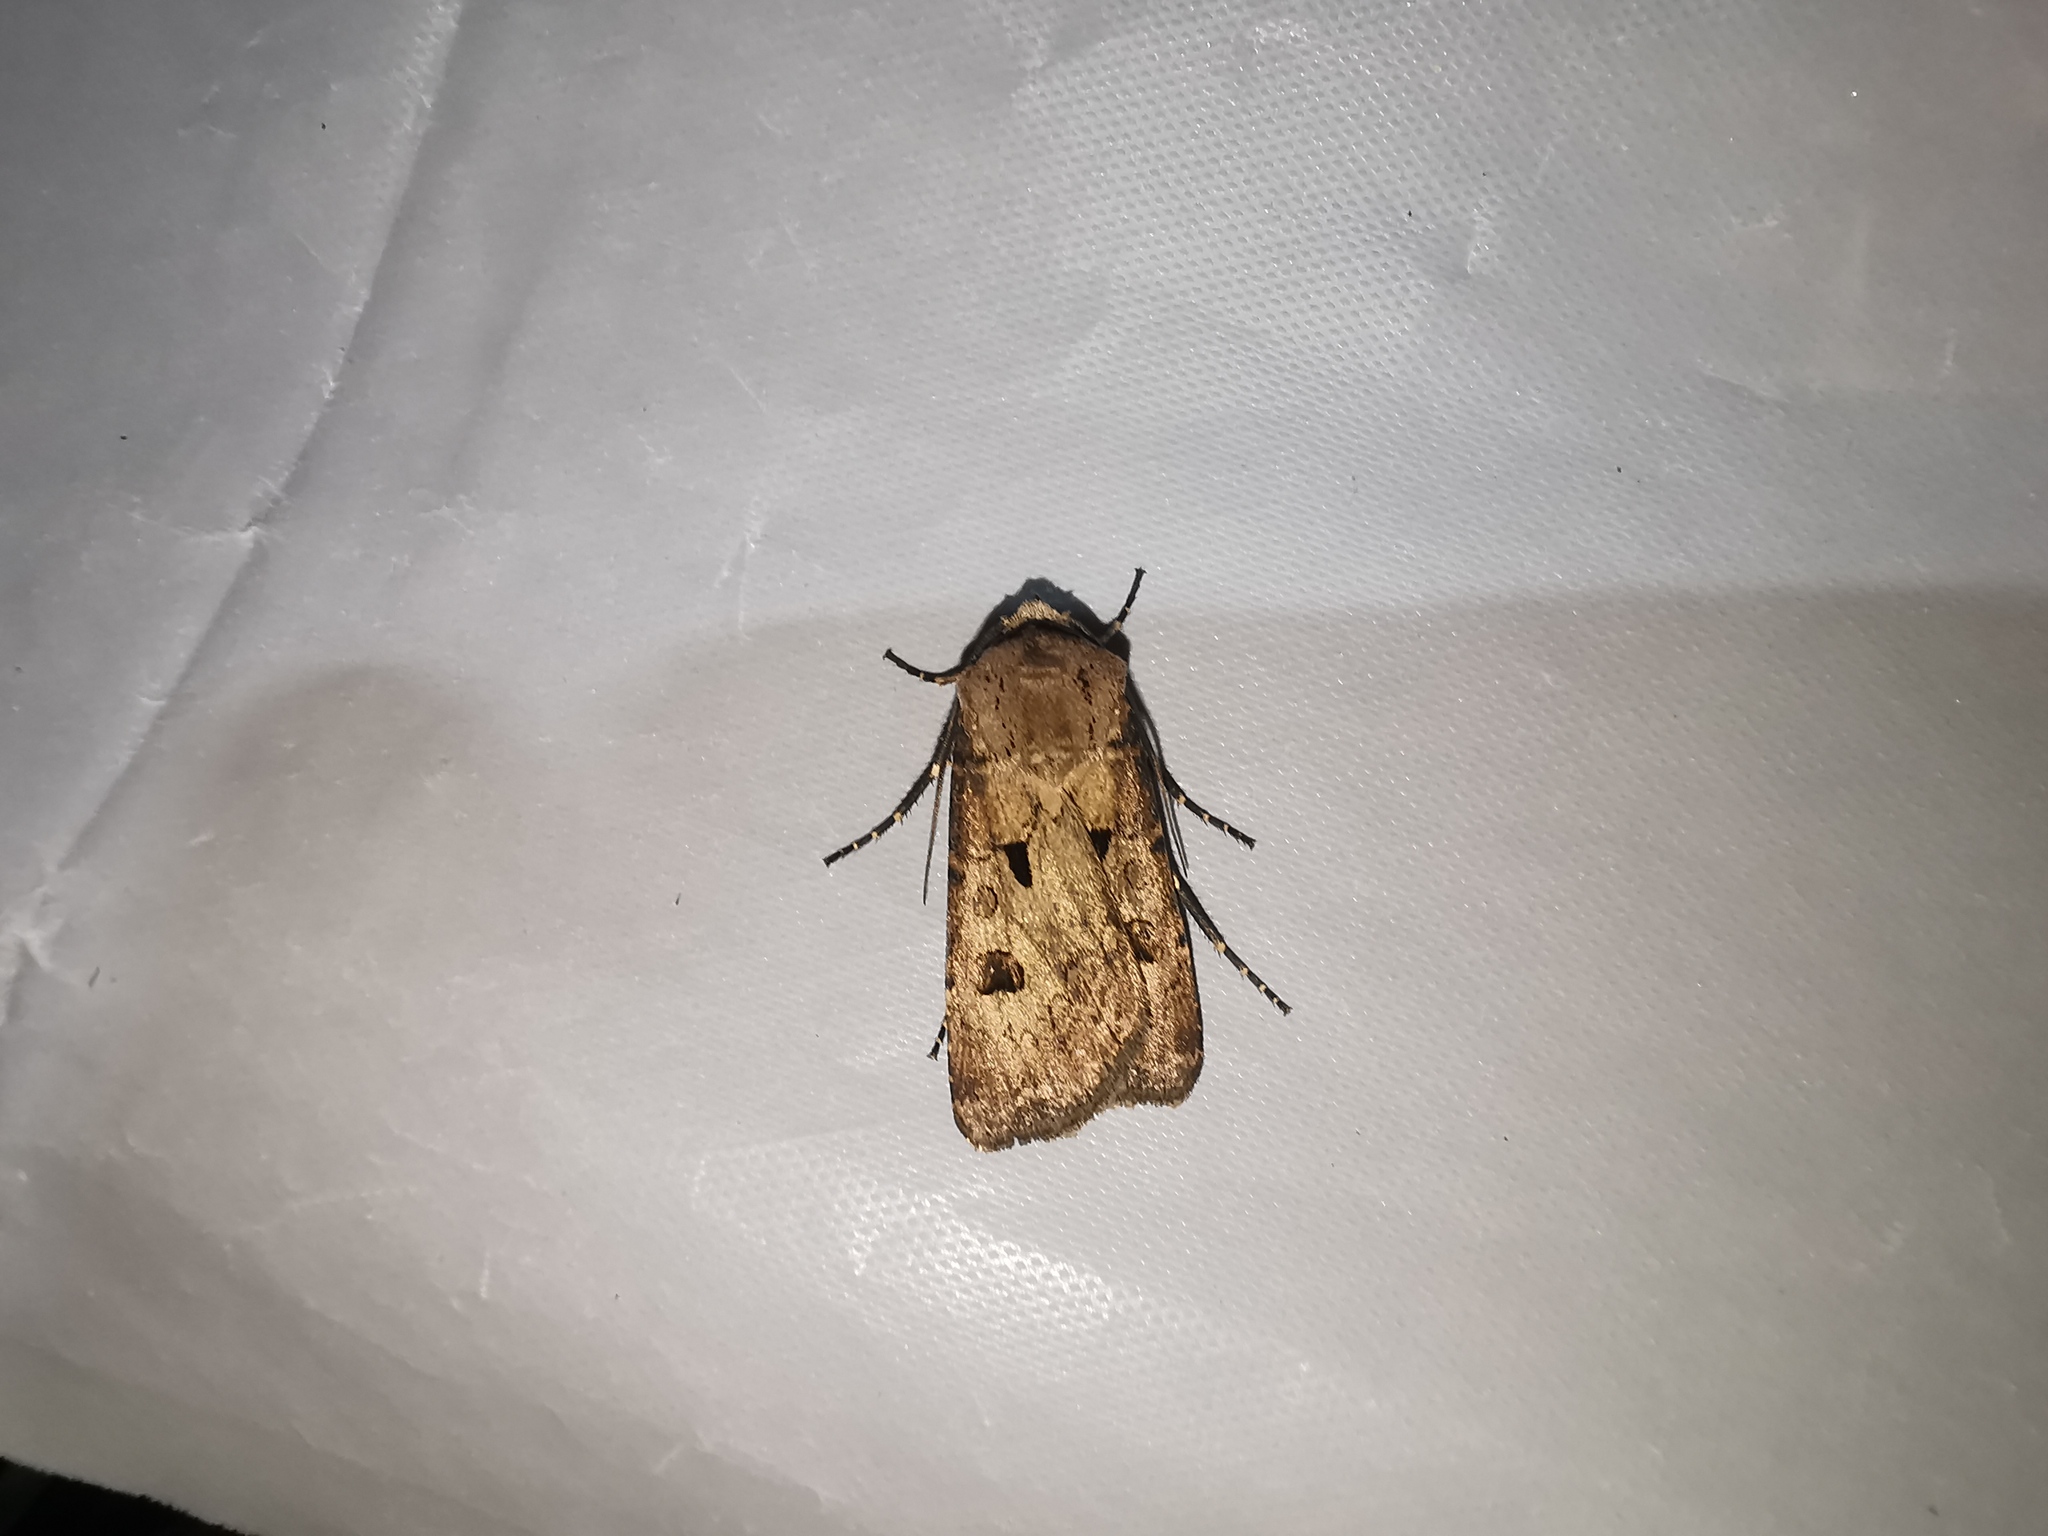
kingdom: Animalia
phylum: Arthropoda
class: Insecta
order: Lepidoptera
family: Noctuidae
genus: Agrotis
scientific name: Agrotis exclamationis
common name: Heart and dart
